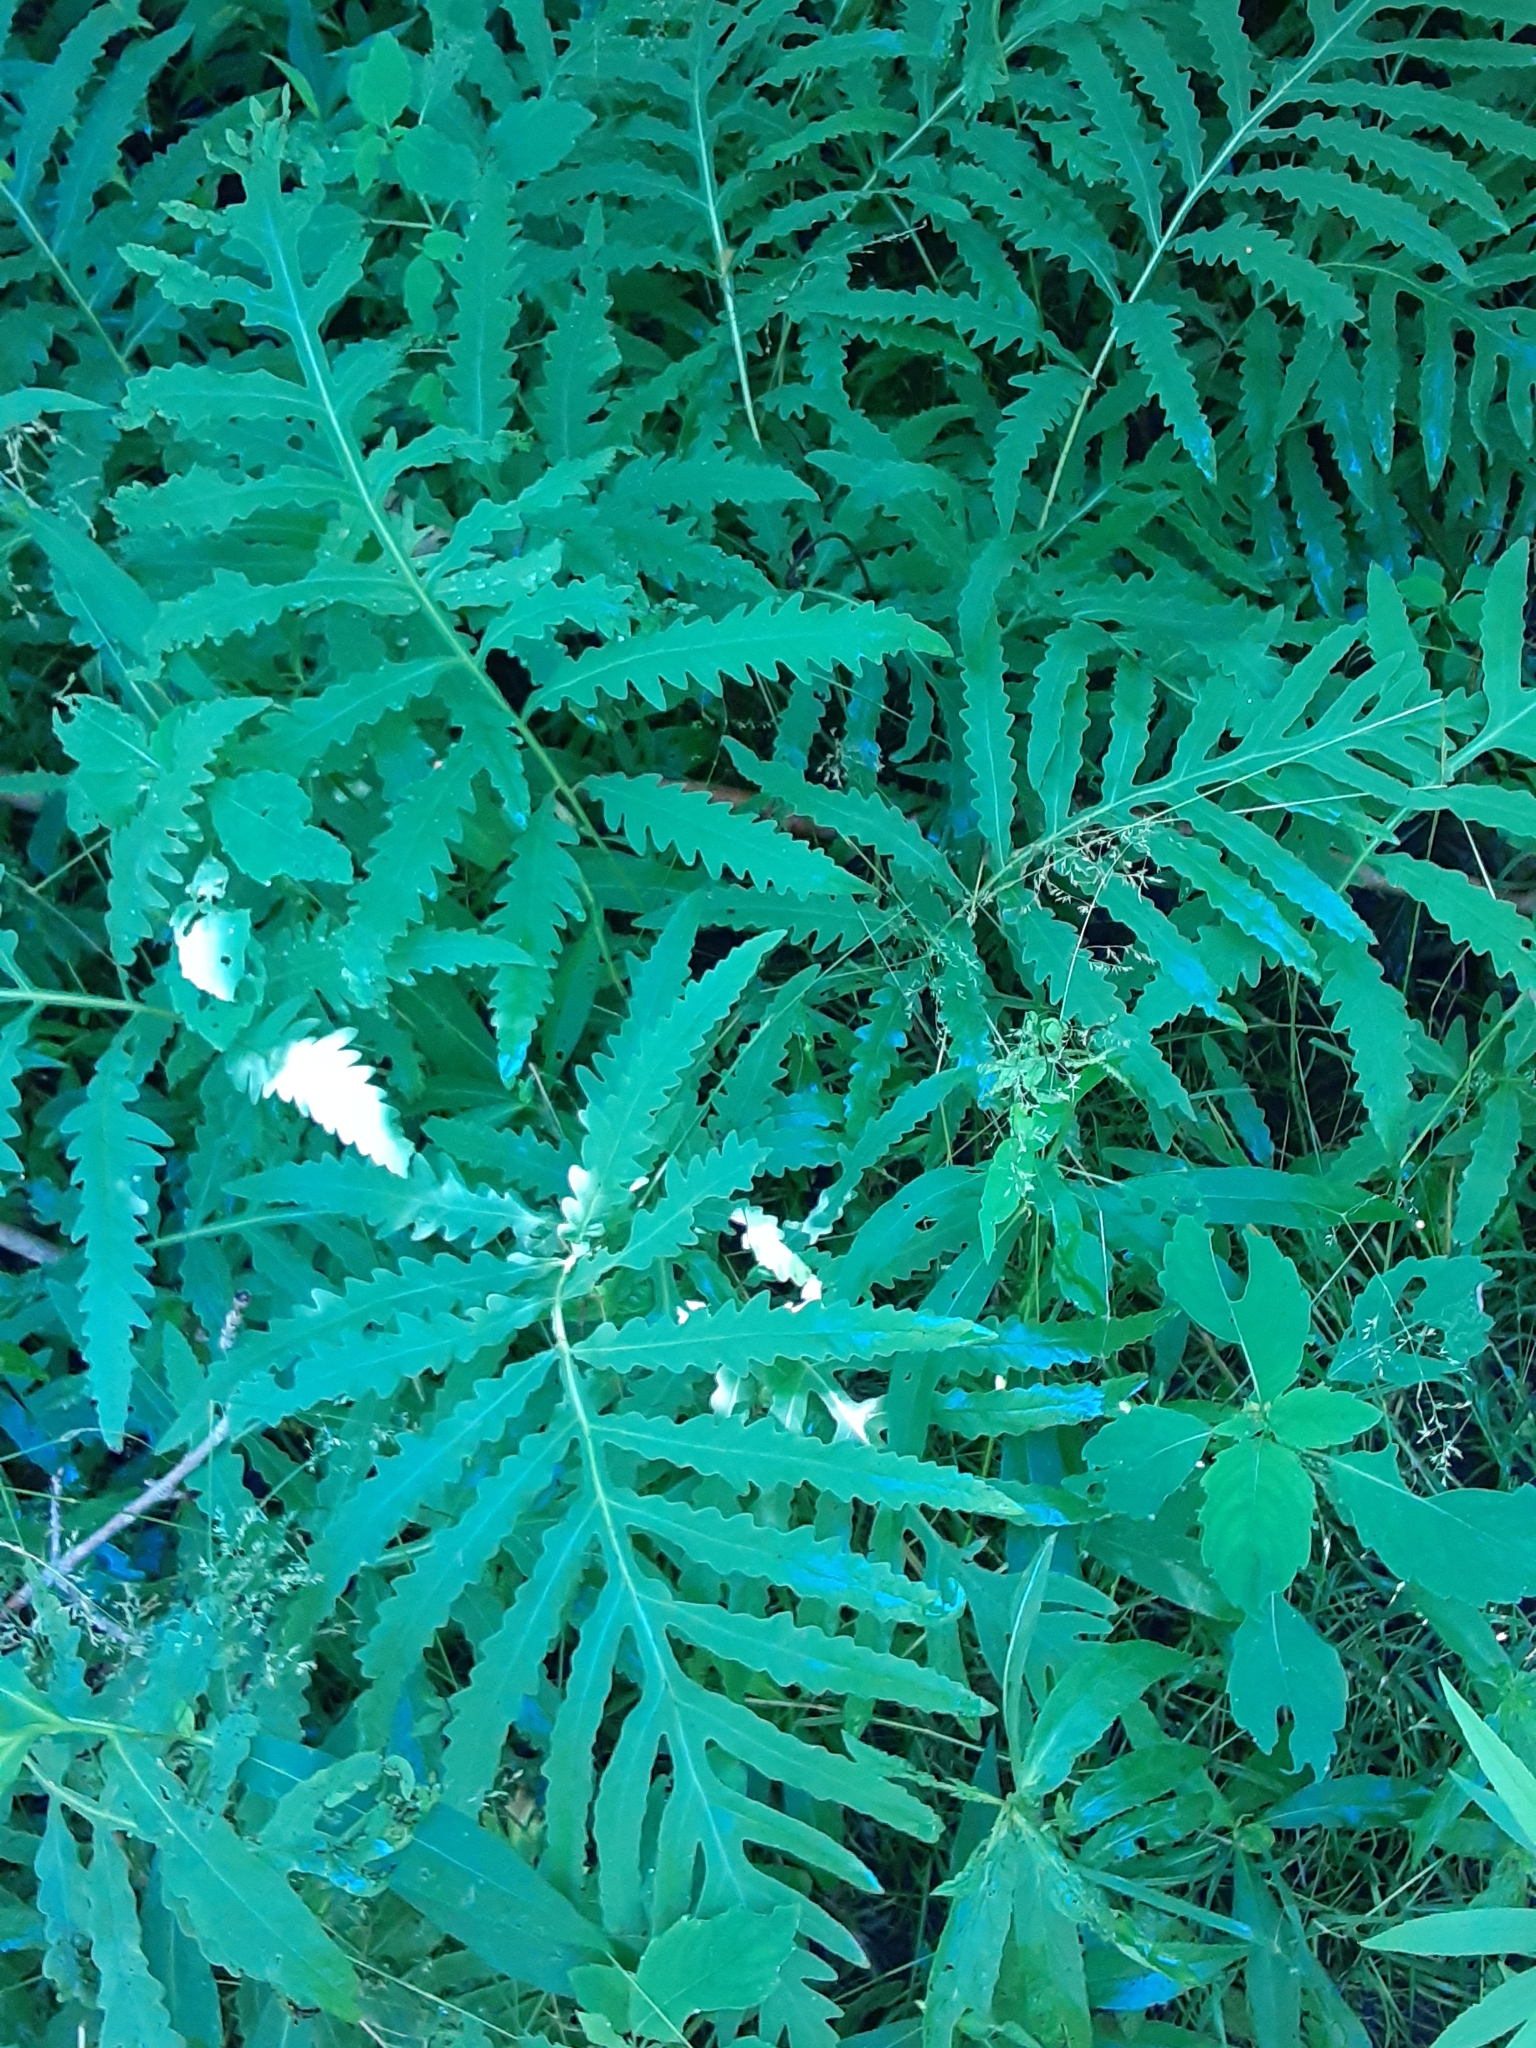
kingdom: Plantae
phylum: Tracheophyta
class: Polypodiopsida
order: Polypodiales
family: Onocleaceae
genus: Onoclea
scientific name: Onoclea sensibilis
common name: Sensitive fern
